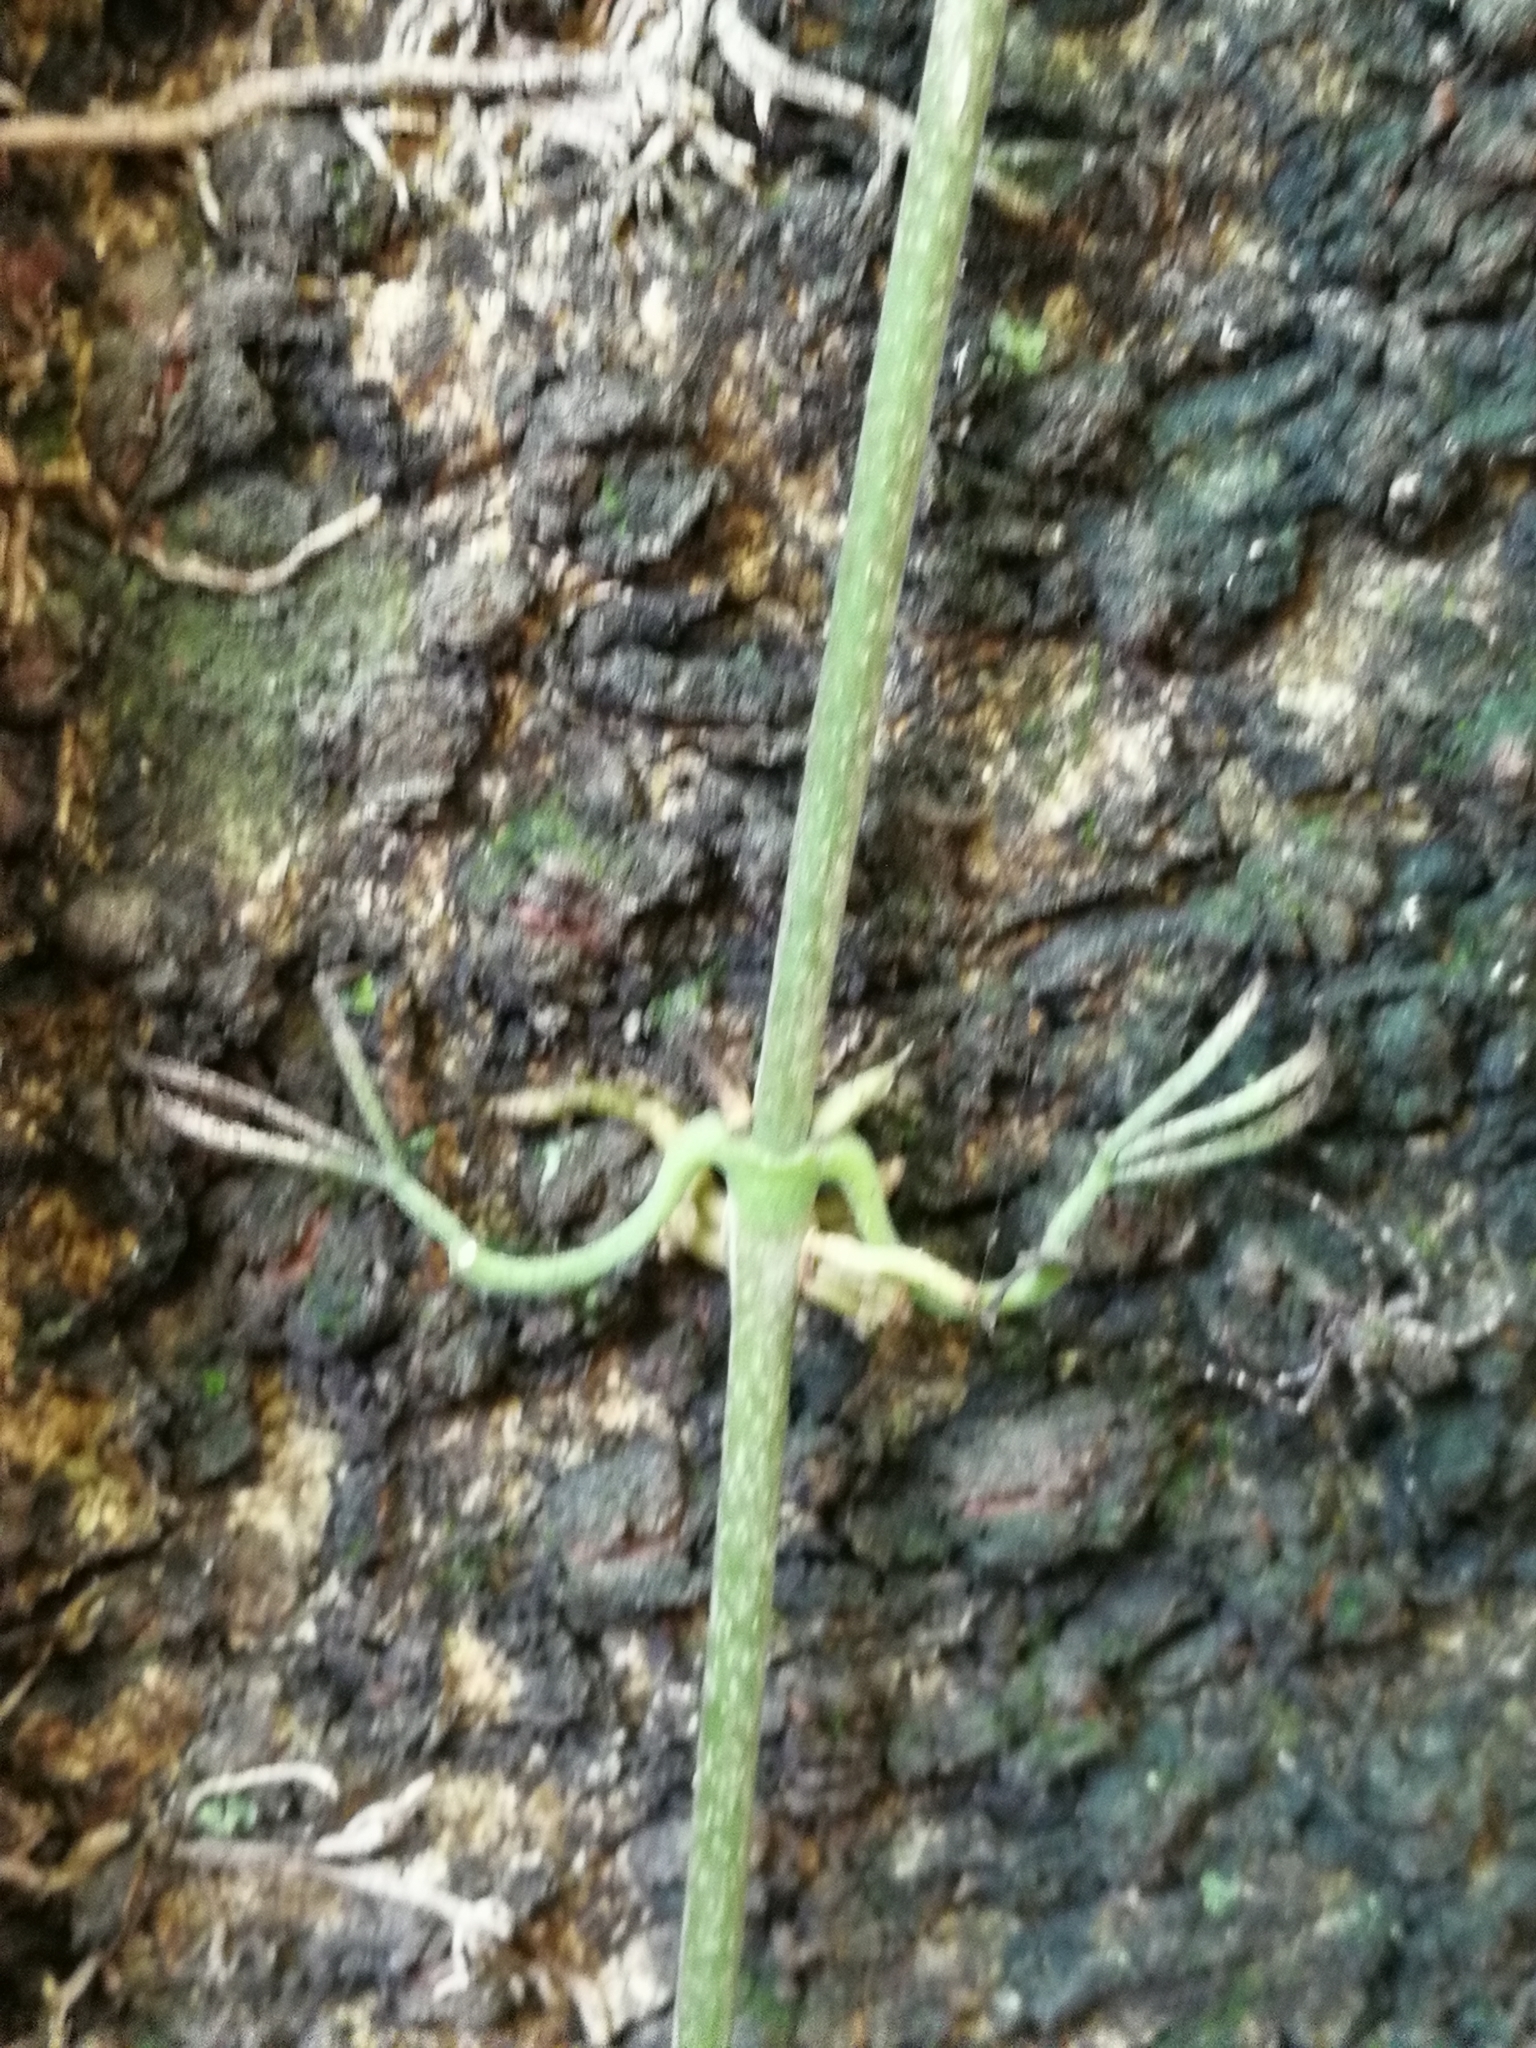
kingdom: Plantae
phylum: Tracheophyta
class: Magnoliopsida
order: Lamiales
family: Bignoniaceae
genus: Dolichandra
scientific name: Dolichandra unguis-cati
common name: Catclaw vine
